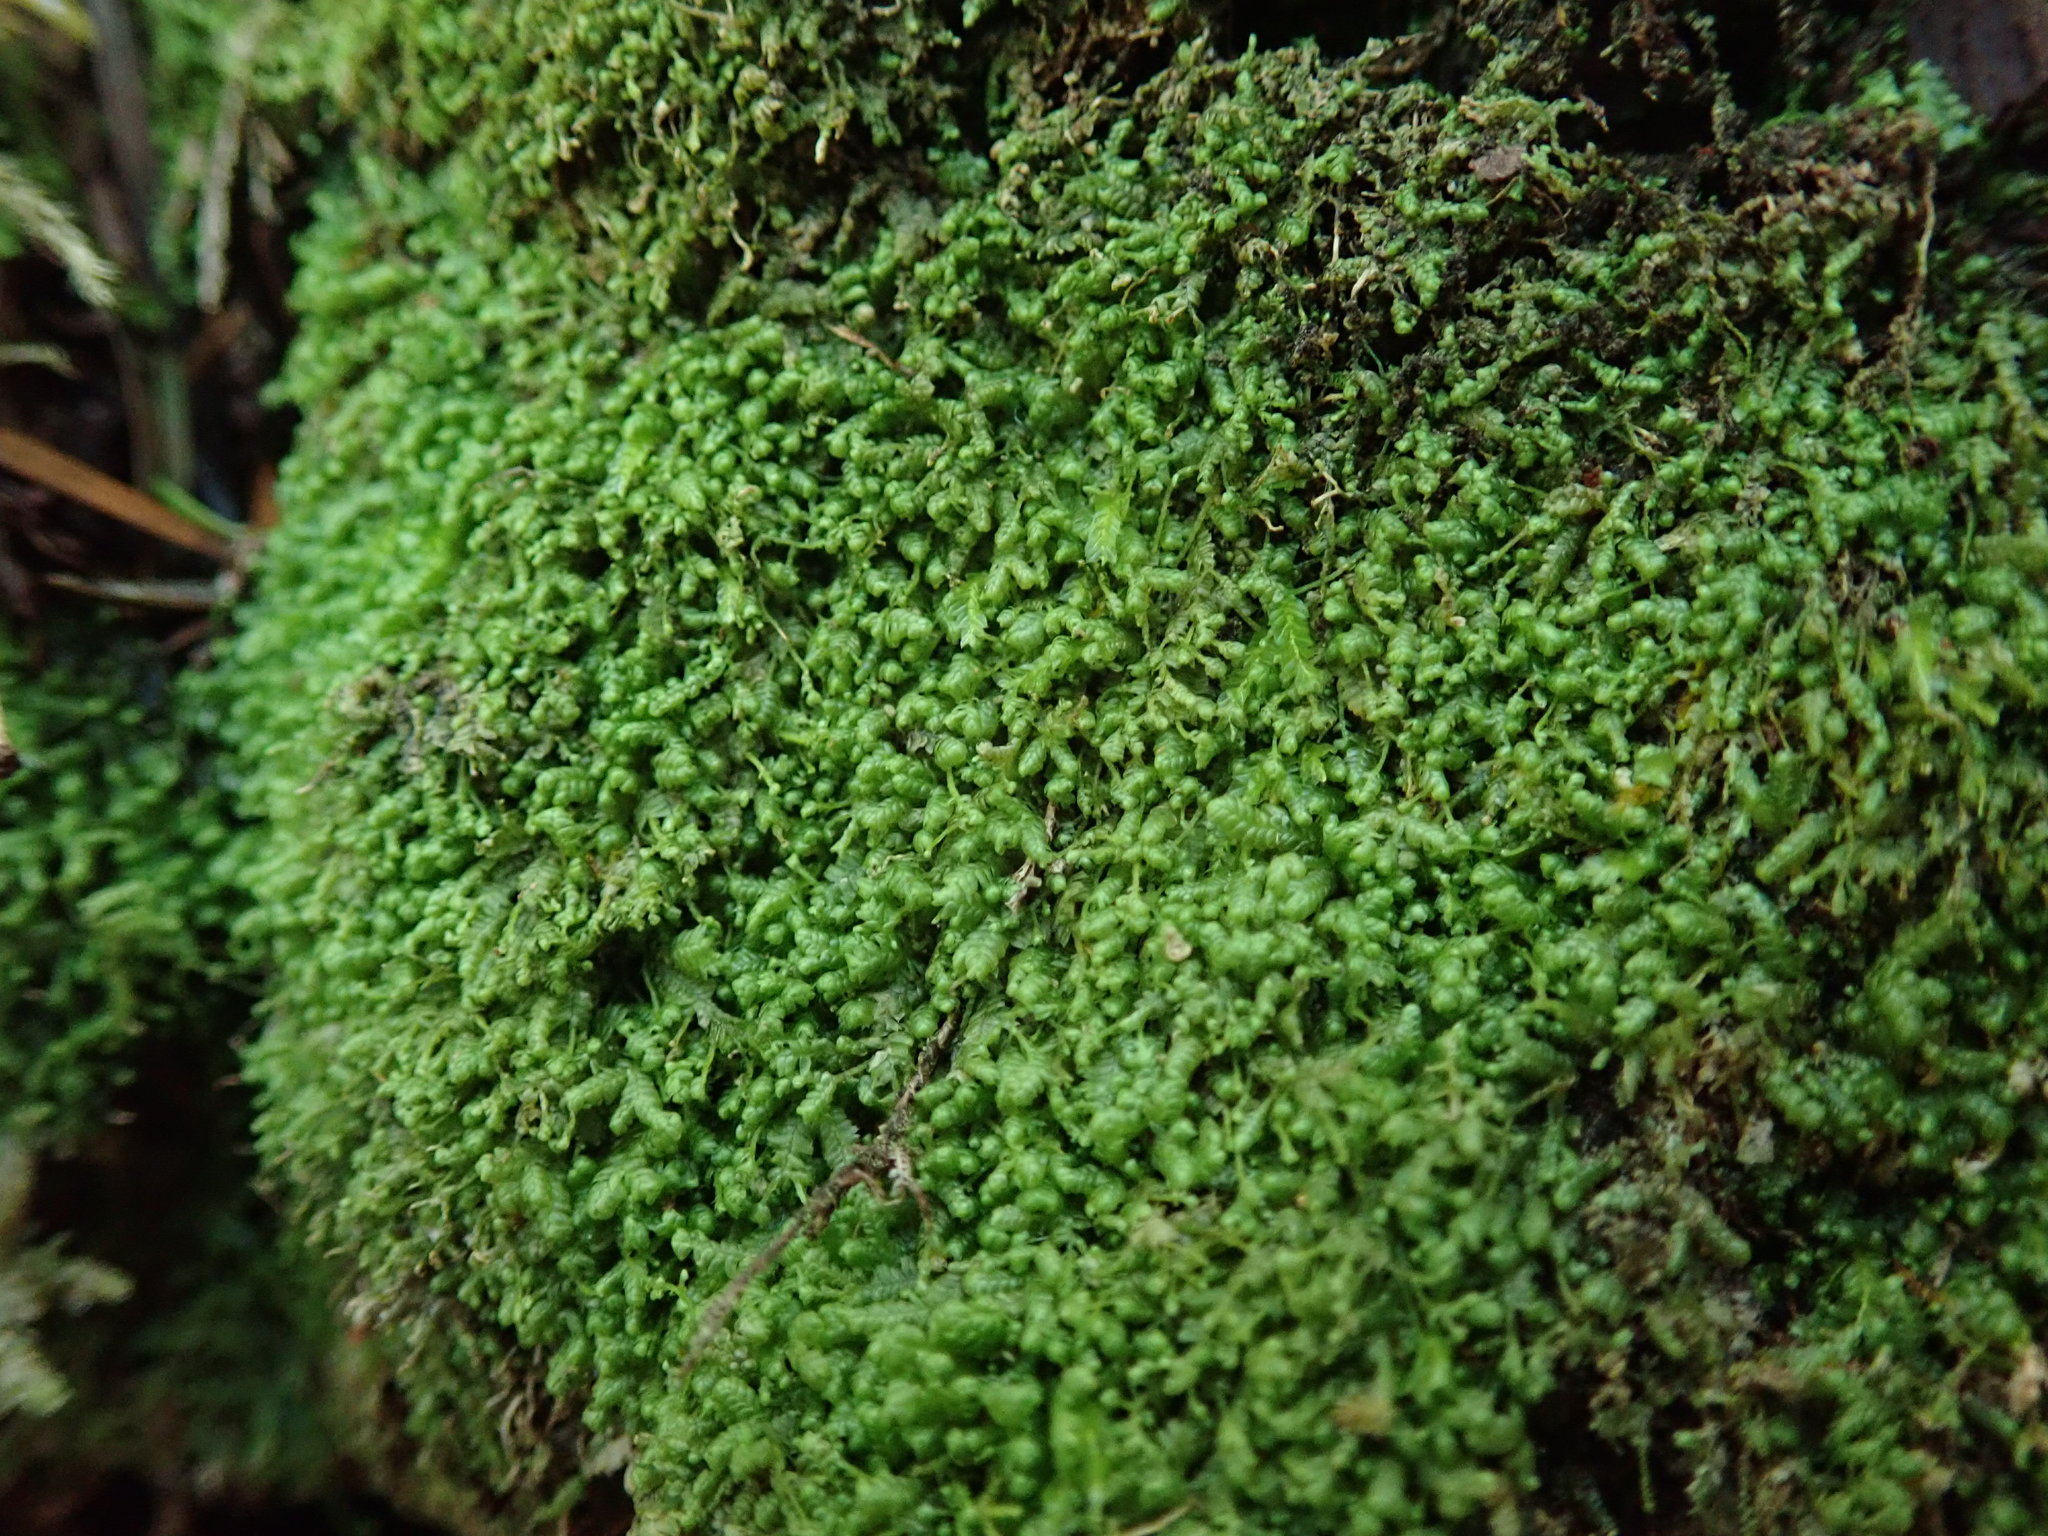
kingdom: Plantae
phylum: Marchantiophyta
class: Jungermanniopsida
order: Jungermanniales
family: Lepidoziaceae
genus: Bazzania
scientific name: Bazzania denudata
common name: Naked whipwort
